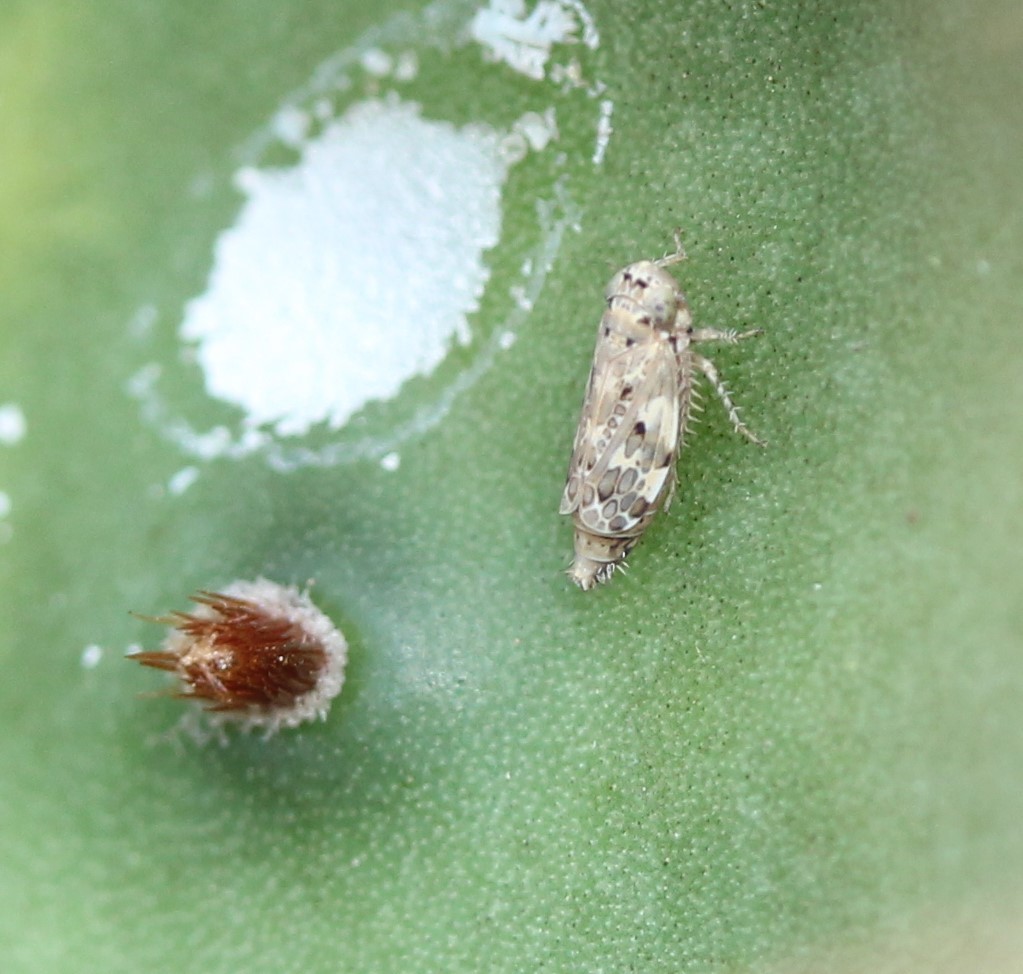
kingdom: Animalia
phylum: Arthropoda
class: Insecta
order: Hemiptera
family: Cicadellidae
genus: Polyamia
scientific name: Polyamia obtecta
